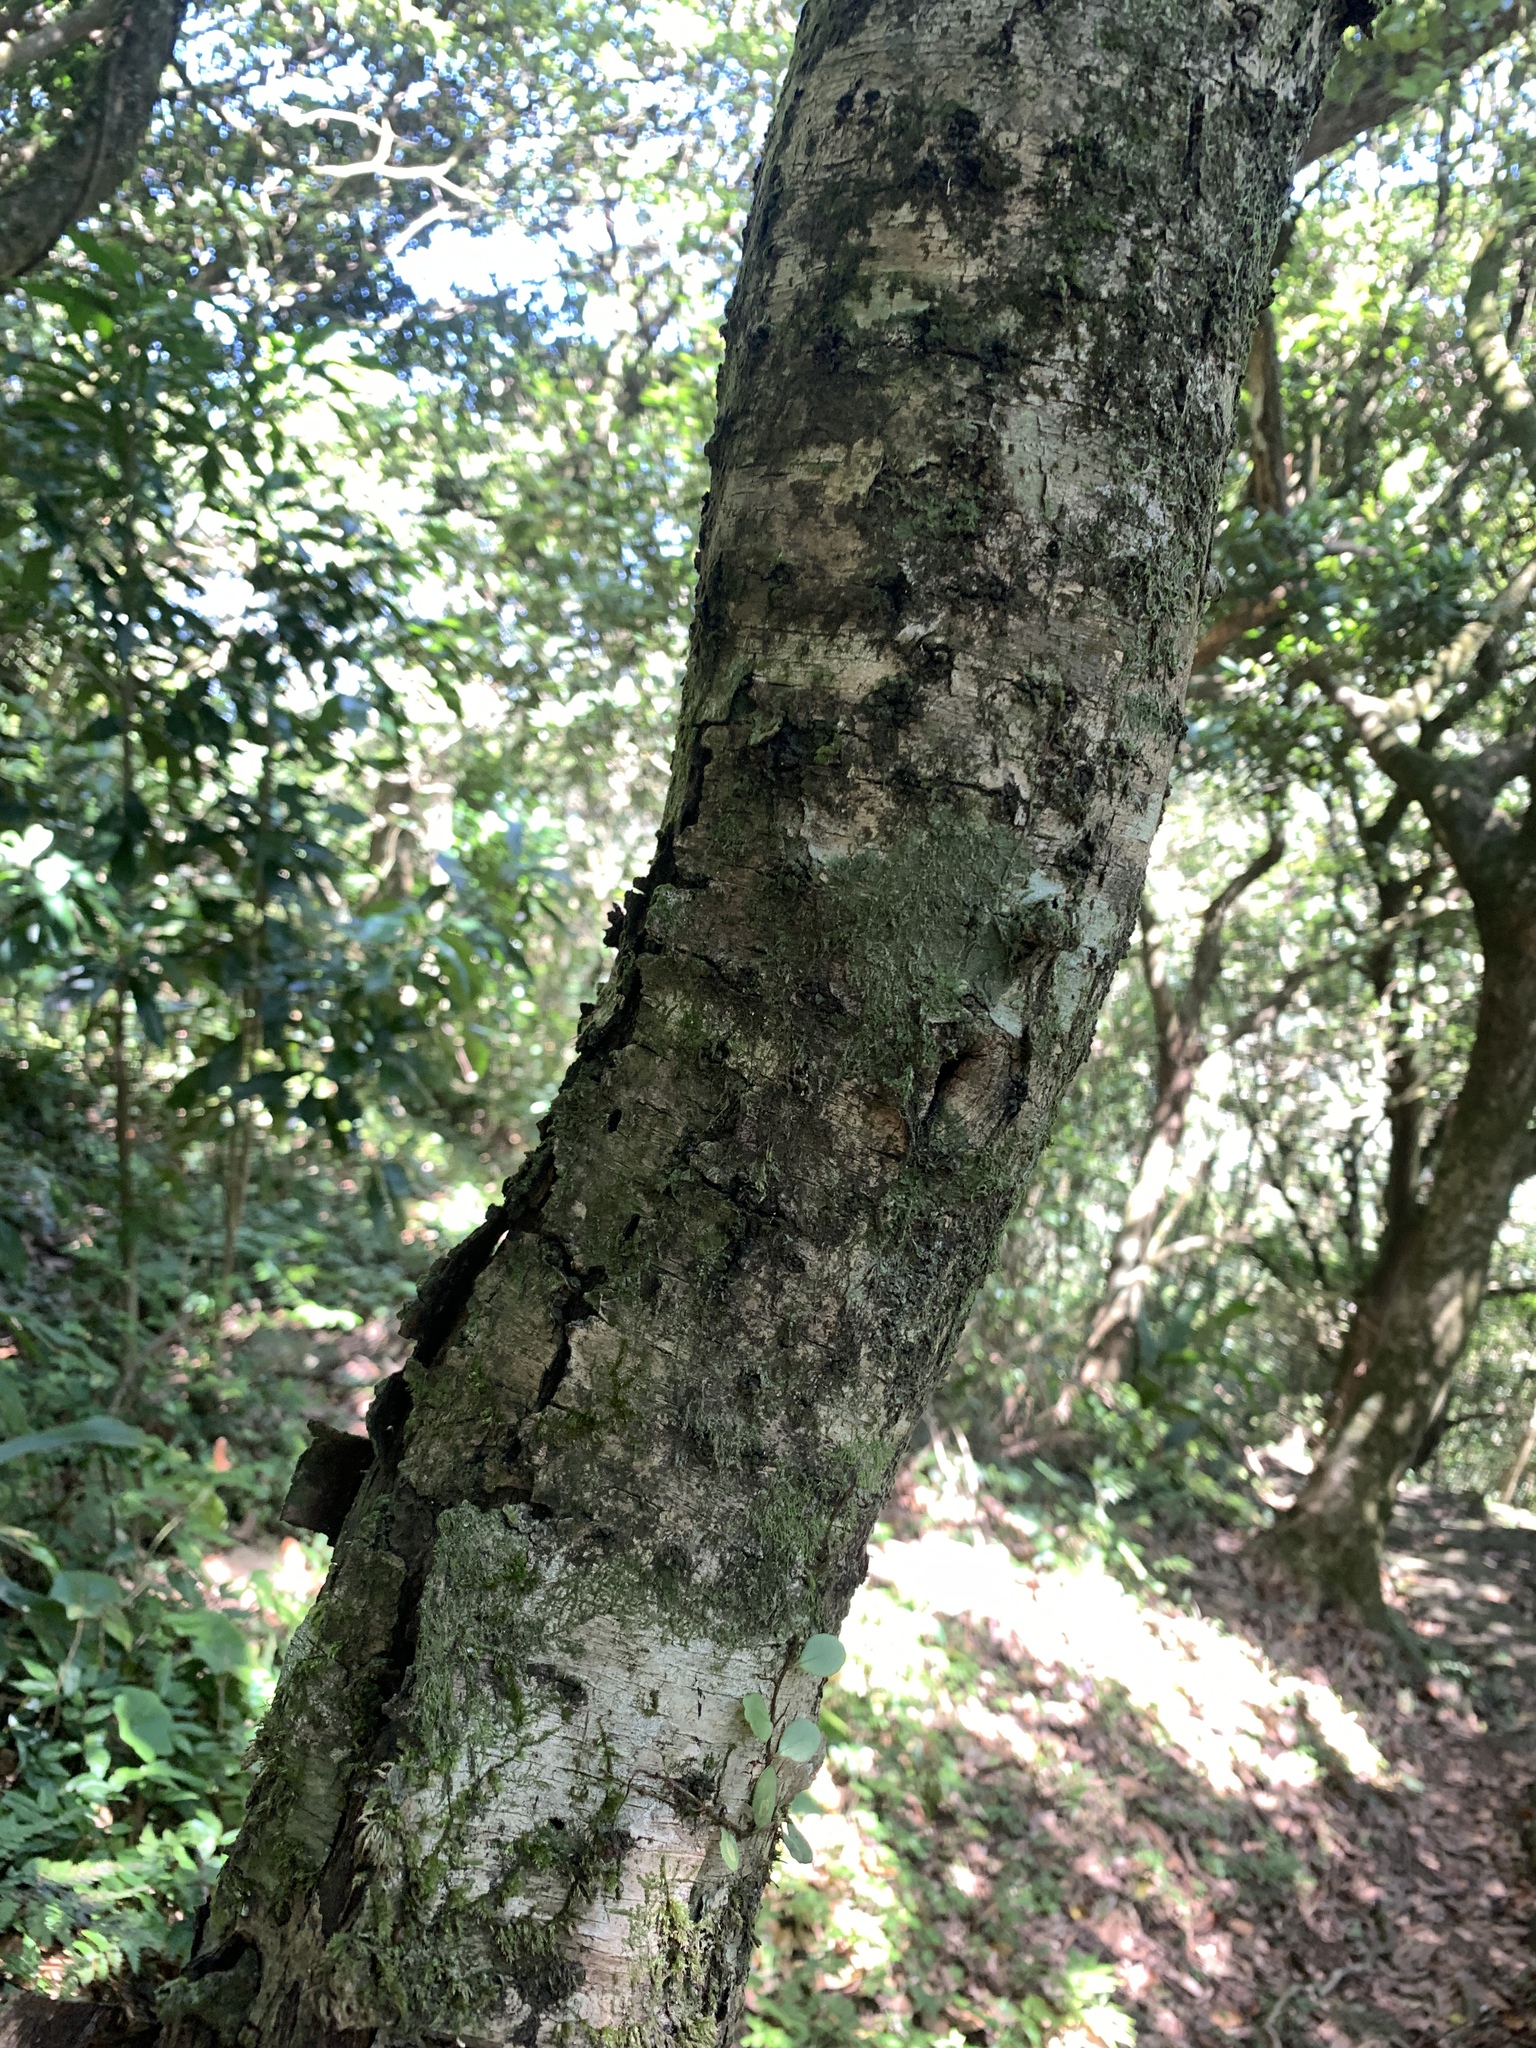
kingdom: Plantae
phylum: Tracheophyta
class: Magnoliopsida
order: Rosales
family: Rhamnaceae
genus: Rhamnus
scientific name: Rhamnus nakaharae
